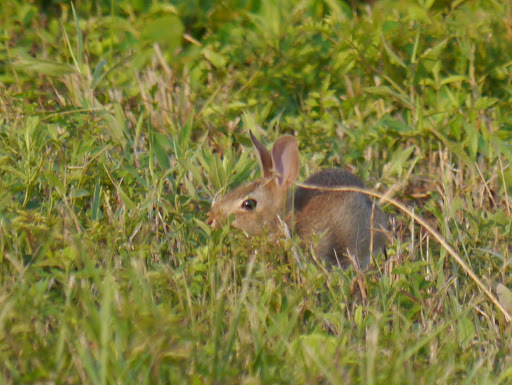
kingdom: Animalia
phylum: Chordata
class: Mammalia
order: Lagomorpha
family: Leporidae
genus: Sylvilagus
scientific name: Sylvilagus floridanus
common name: Eastern cottontail
